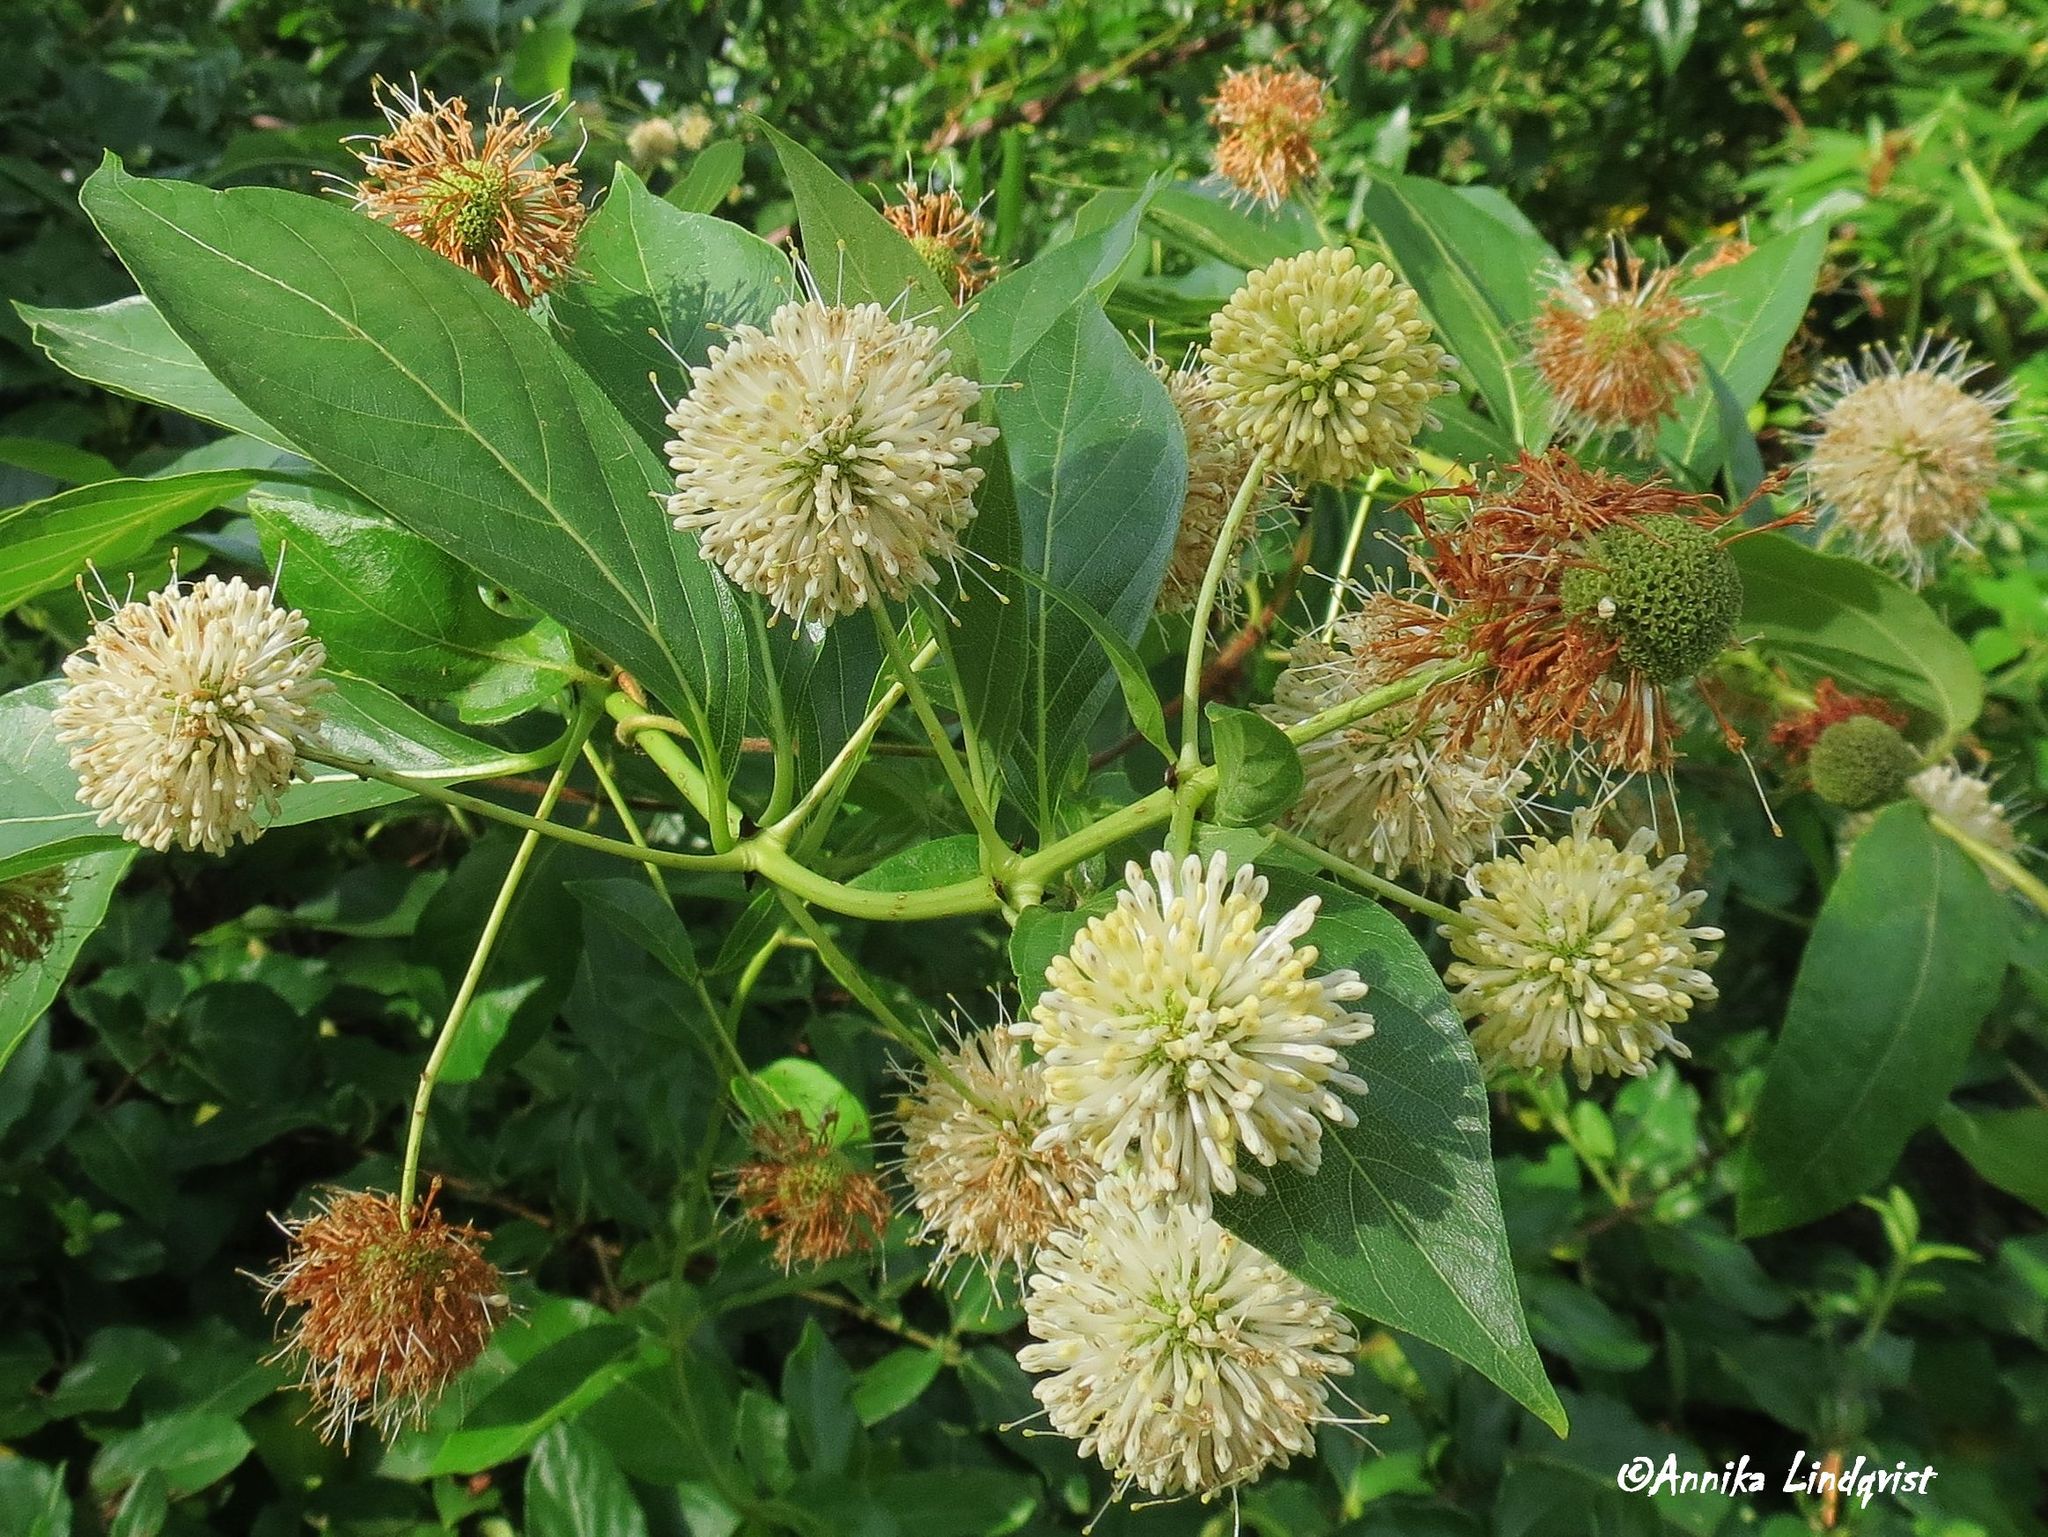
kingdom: Plantae
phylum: Tracheophyta
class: Magnoliopsida
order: Gentianales
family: Rubiaceae
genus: Cephalanthus
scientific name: Cephalanthus occidentalis
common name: Button-willow
